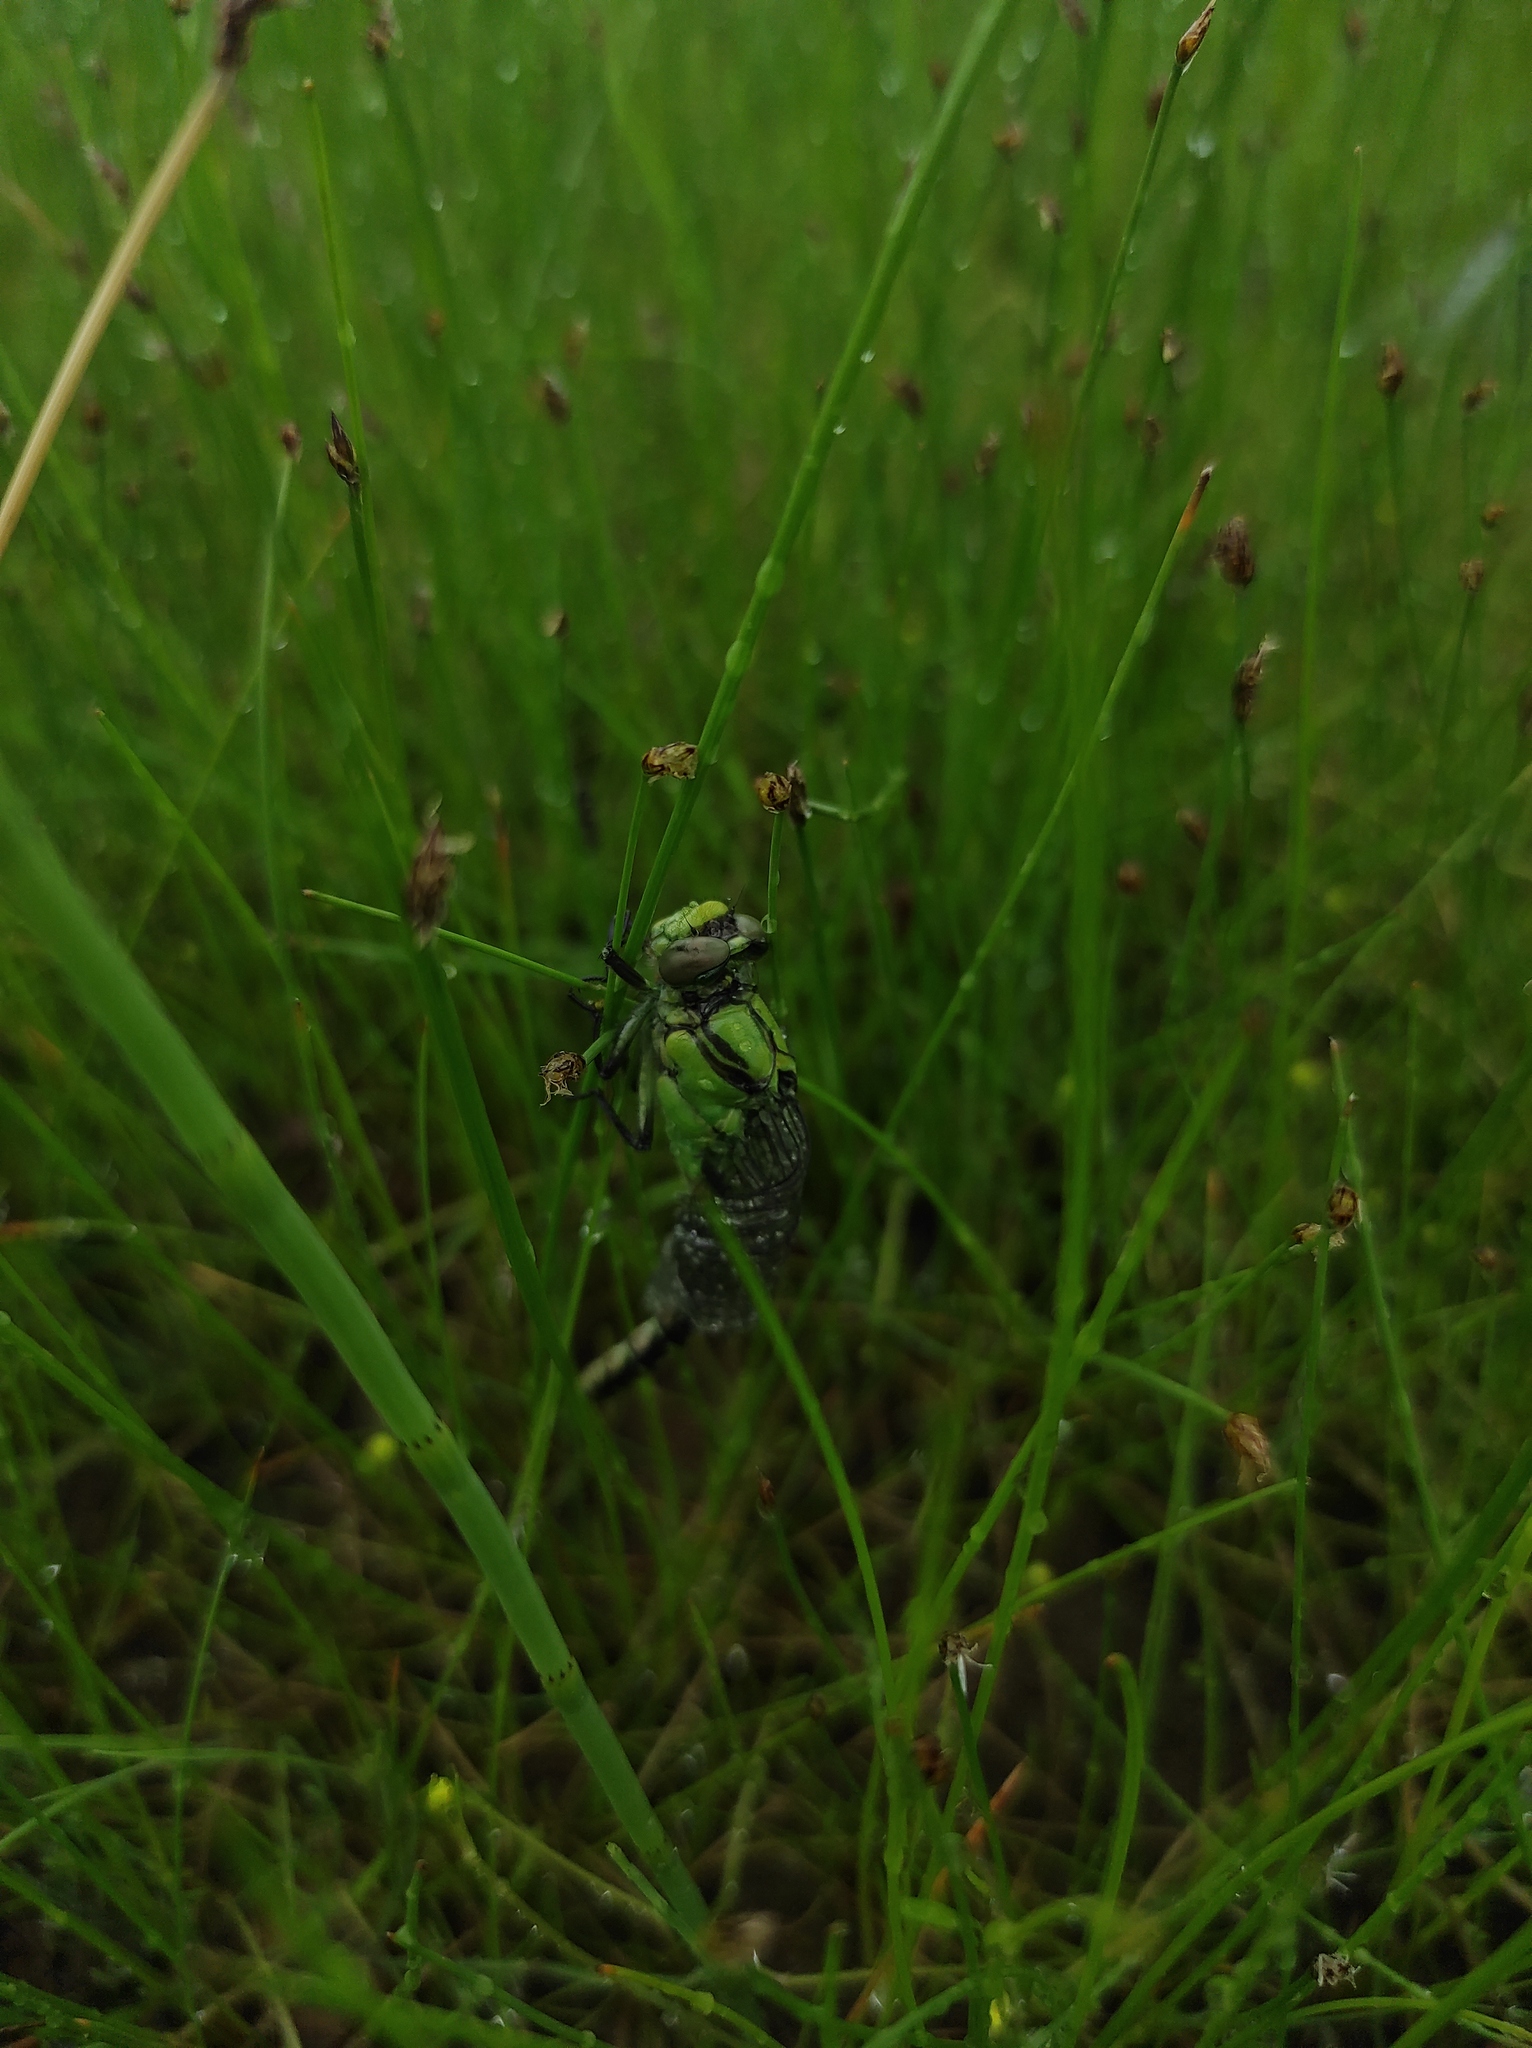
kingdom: Animalia
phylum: Arthropoda
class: Insecta
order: Odonata
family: Gomphidae
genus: Ophiogomphus
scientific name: Ophiogomphus obscurus
